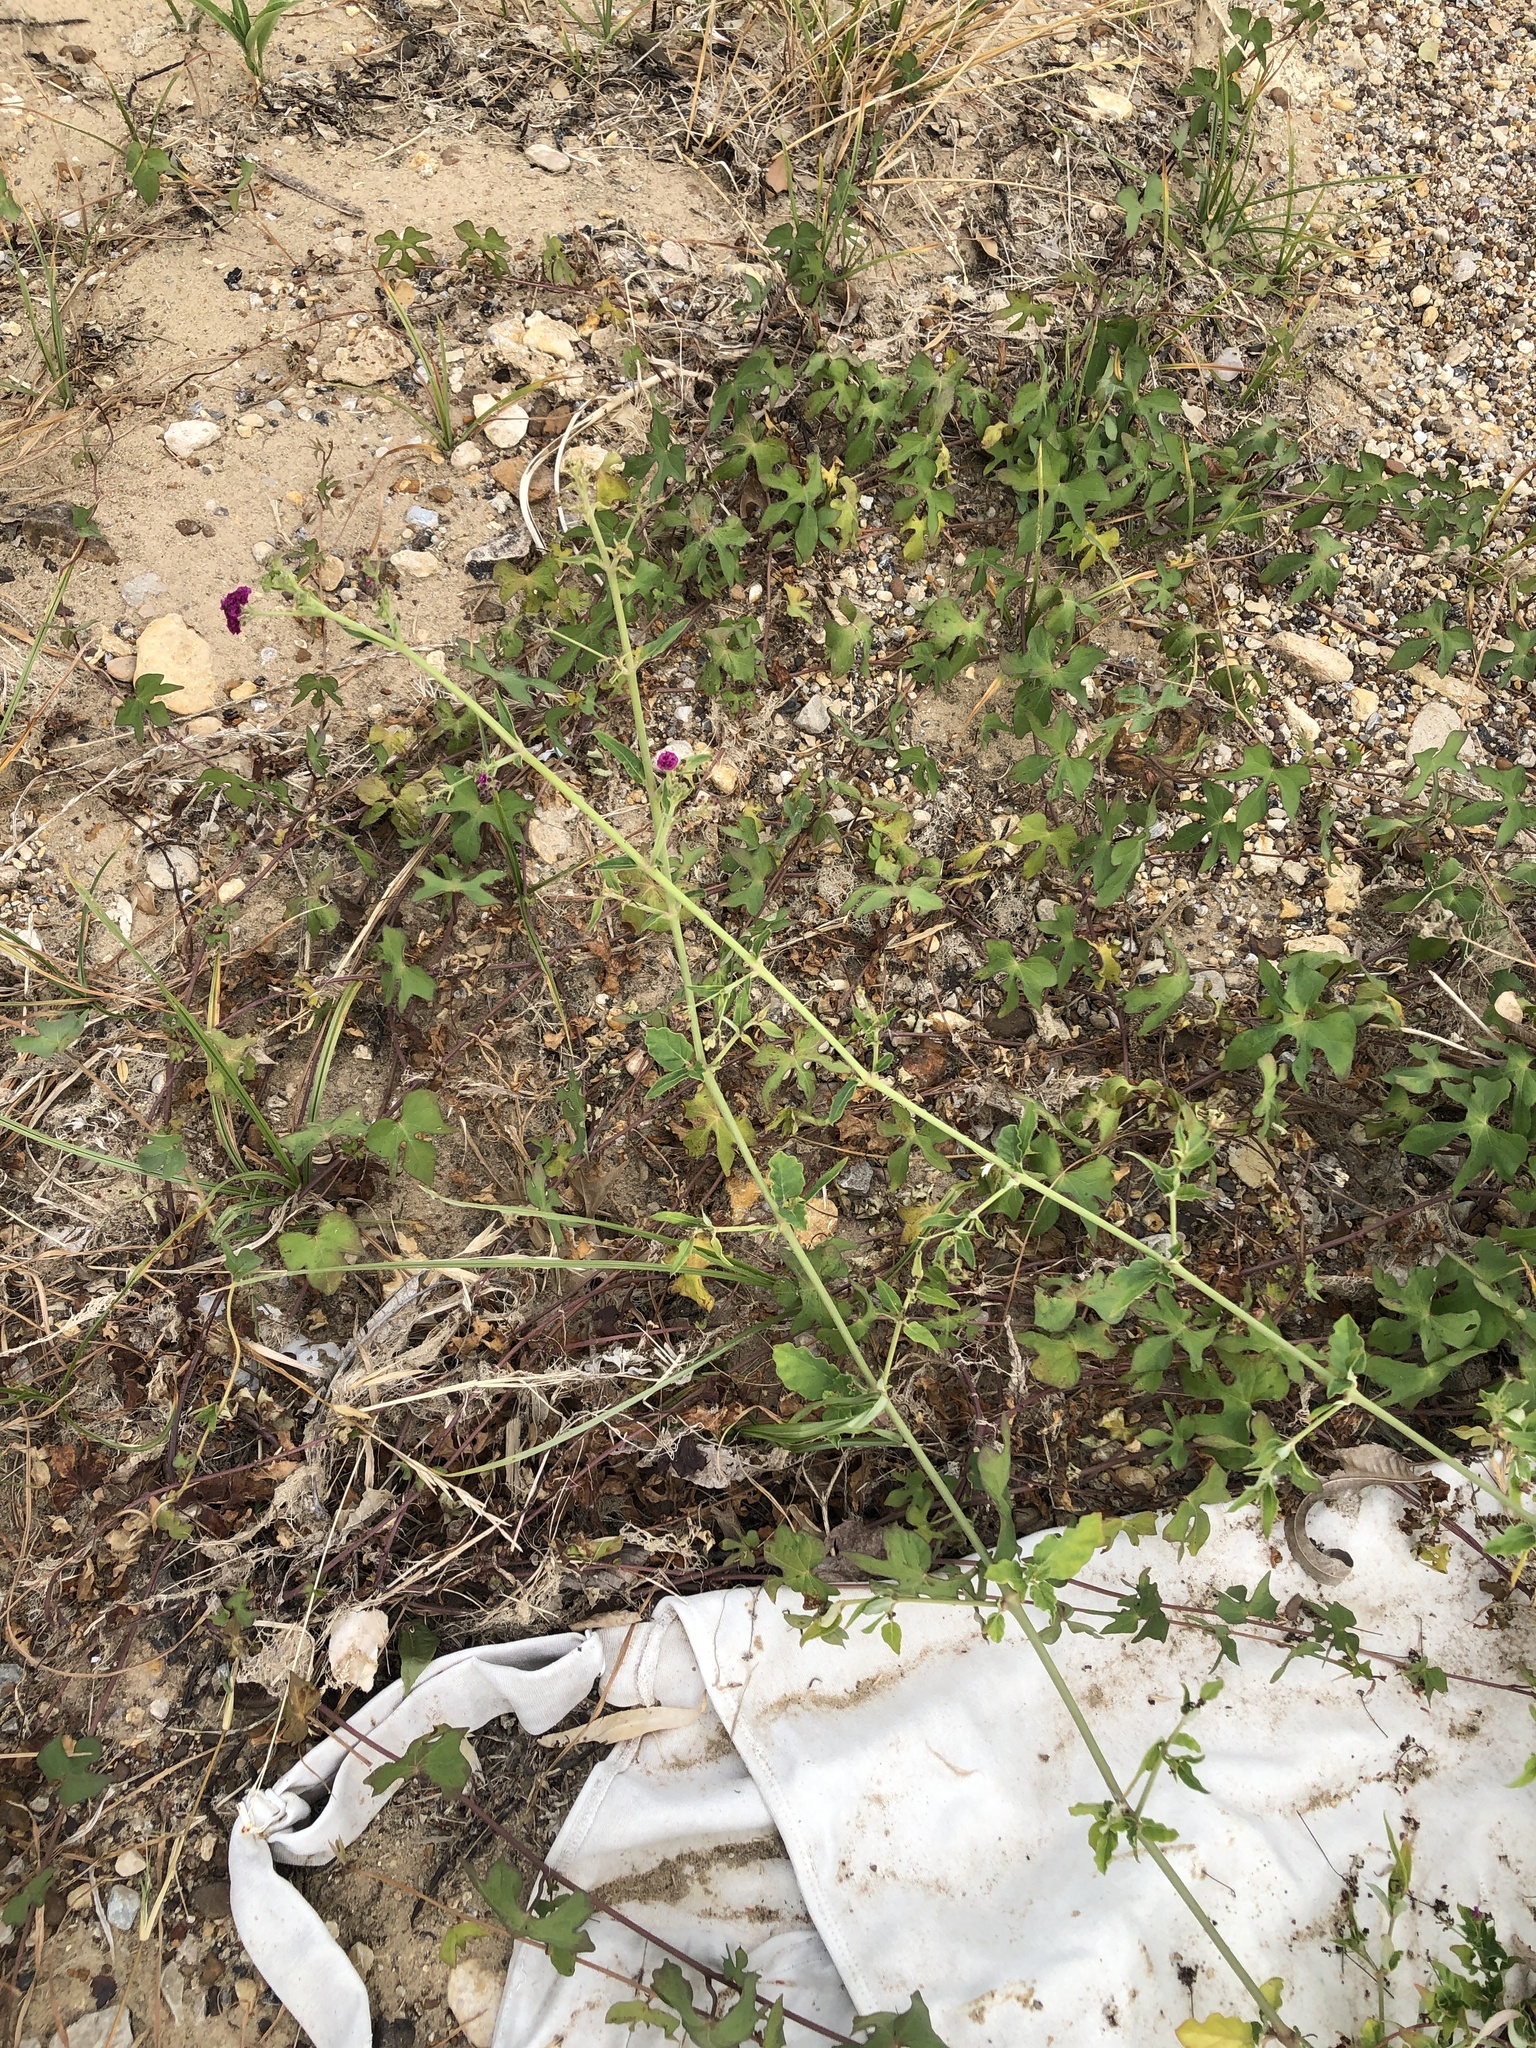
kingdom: Plantae
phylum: Tracheophyta
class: Magnoliopsida
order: Caryophyllales
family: Nyctaginaceae
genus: Boerhavia
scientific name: Boerhavia coccinea
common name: Scarlet spiderling
